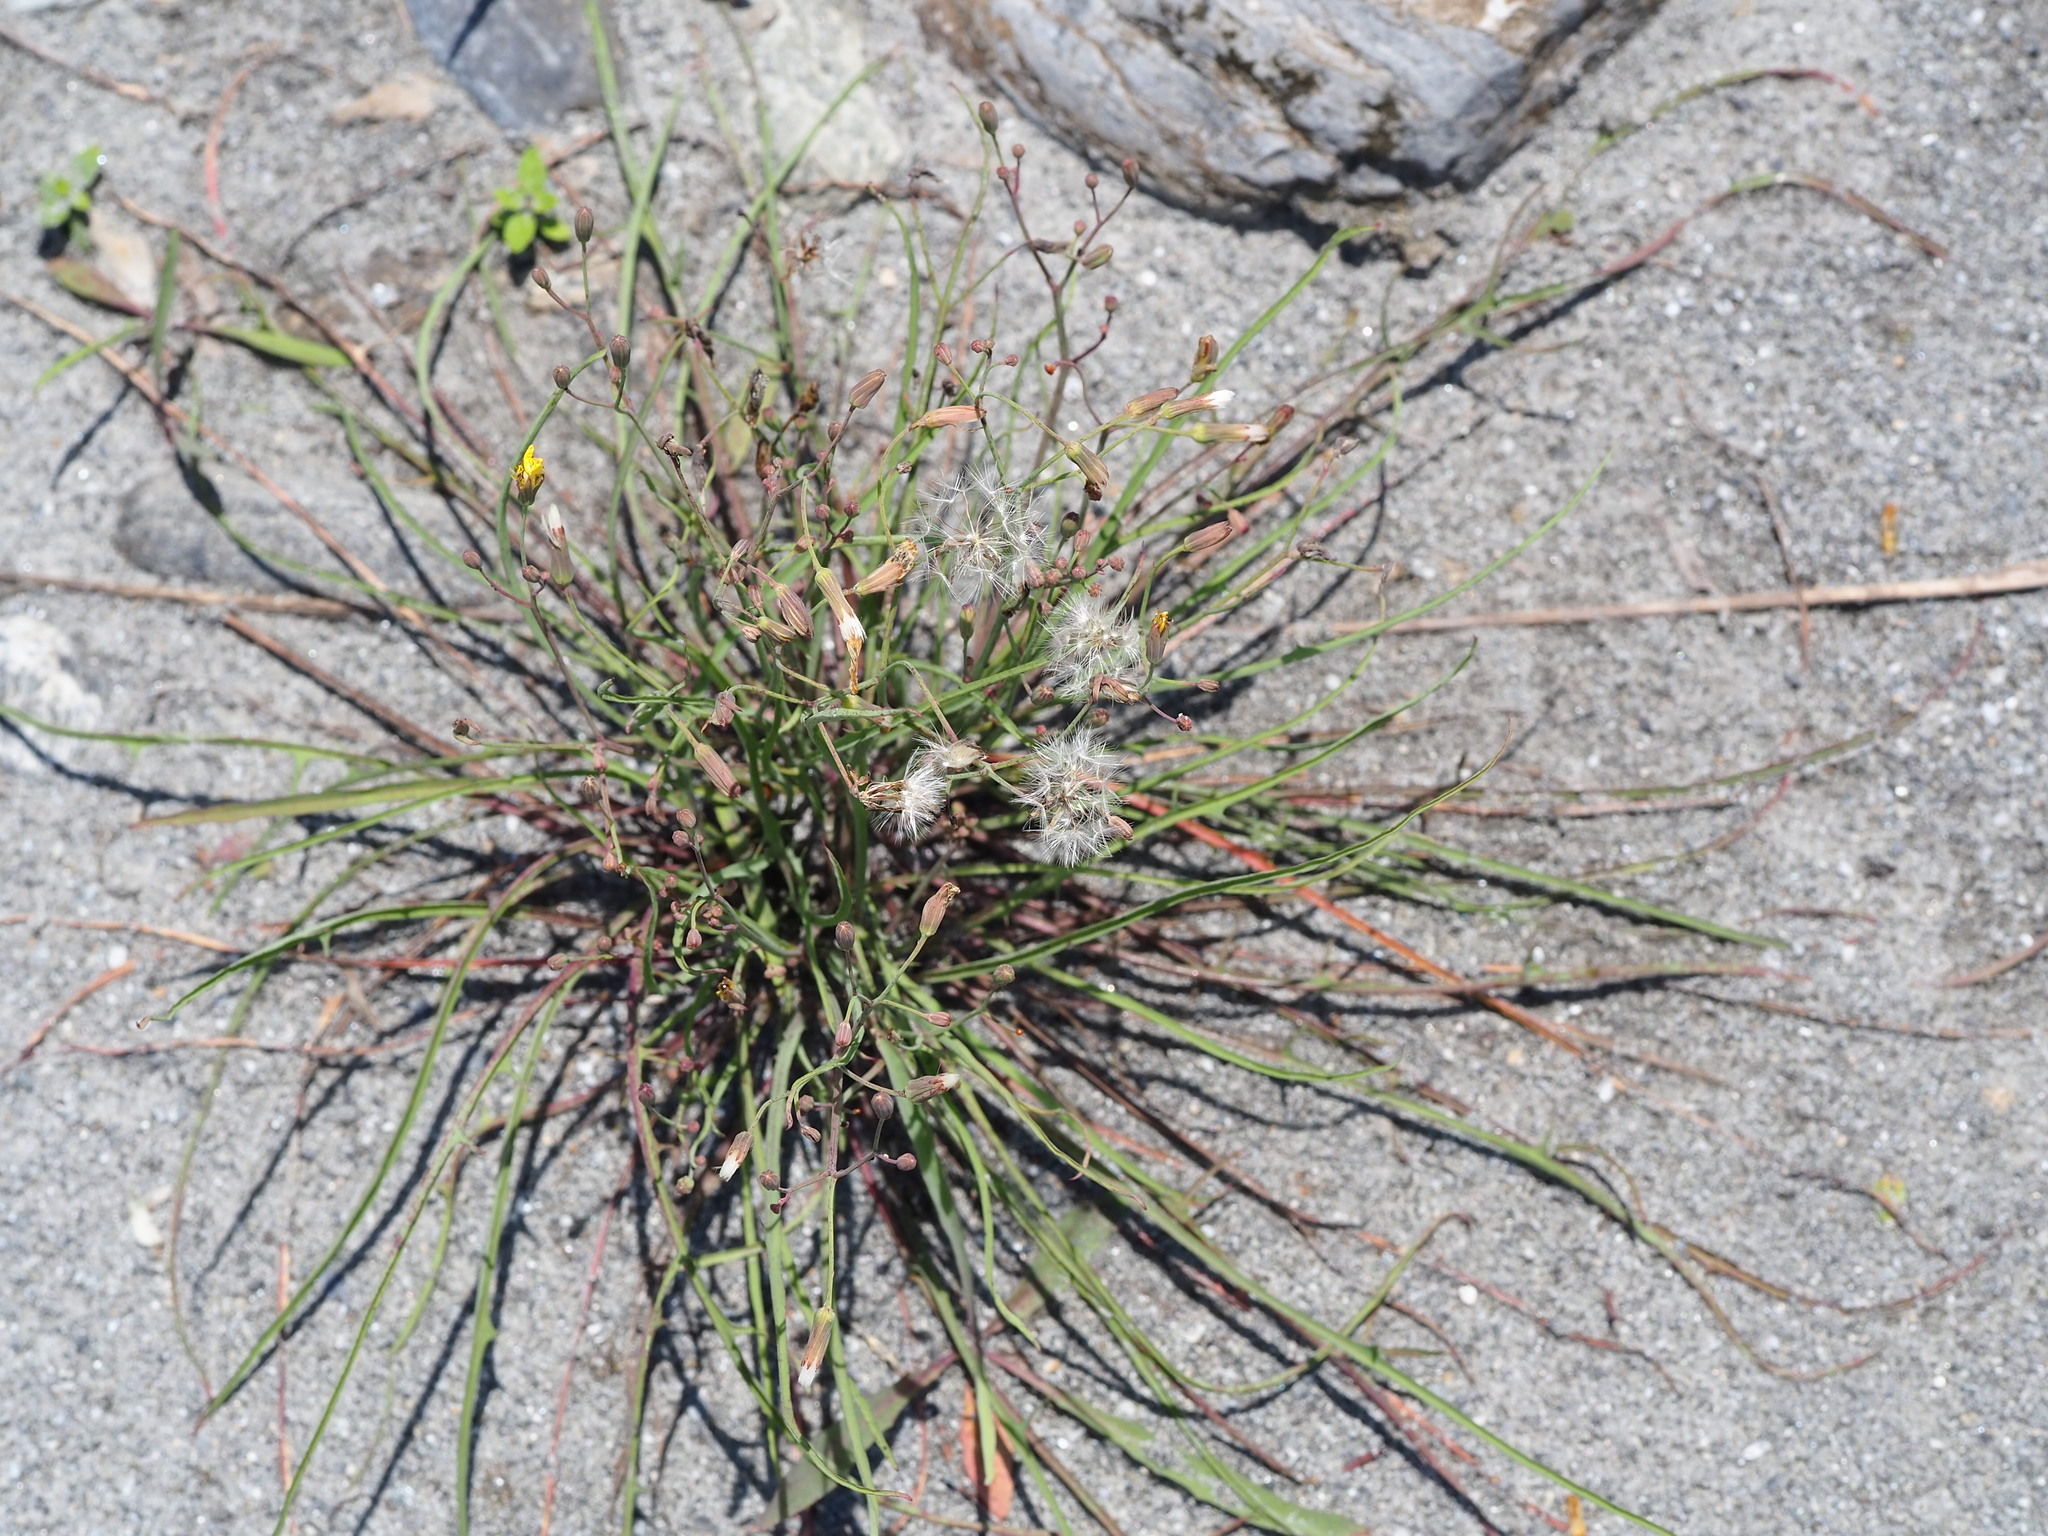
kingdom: Plantae
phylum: Tracheophyta
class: Magnoliopsida
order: Asterales
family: Asteraceae
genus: Ixeris
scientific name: Ixeris tamagawaensis
